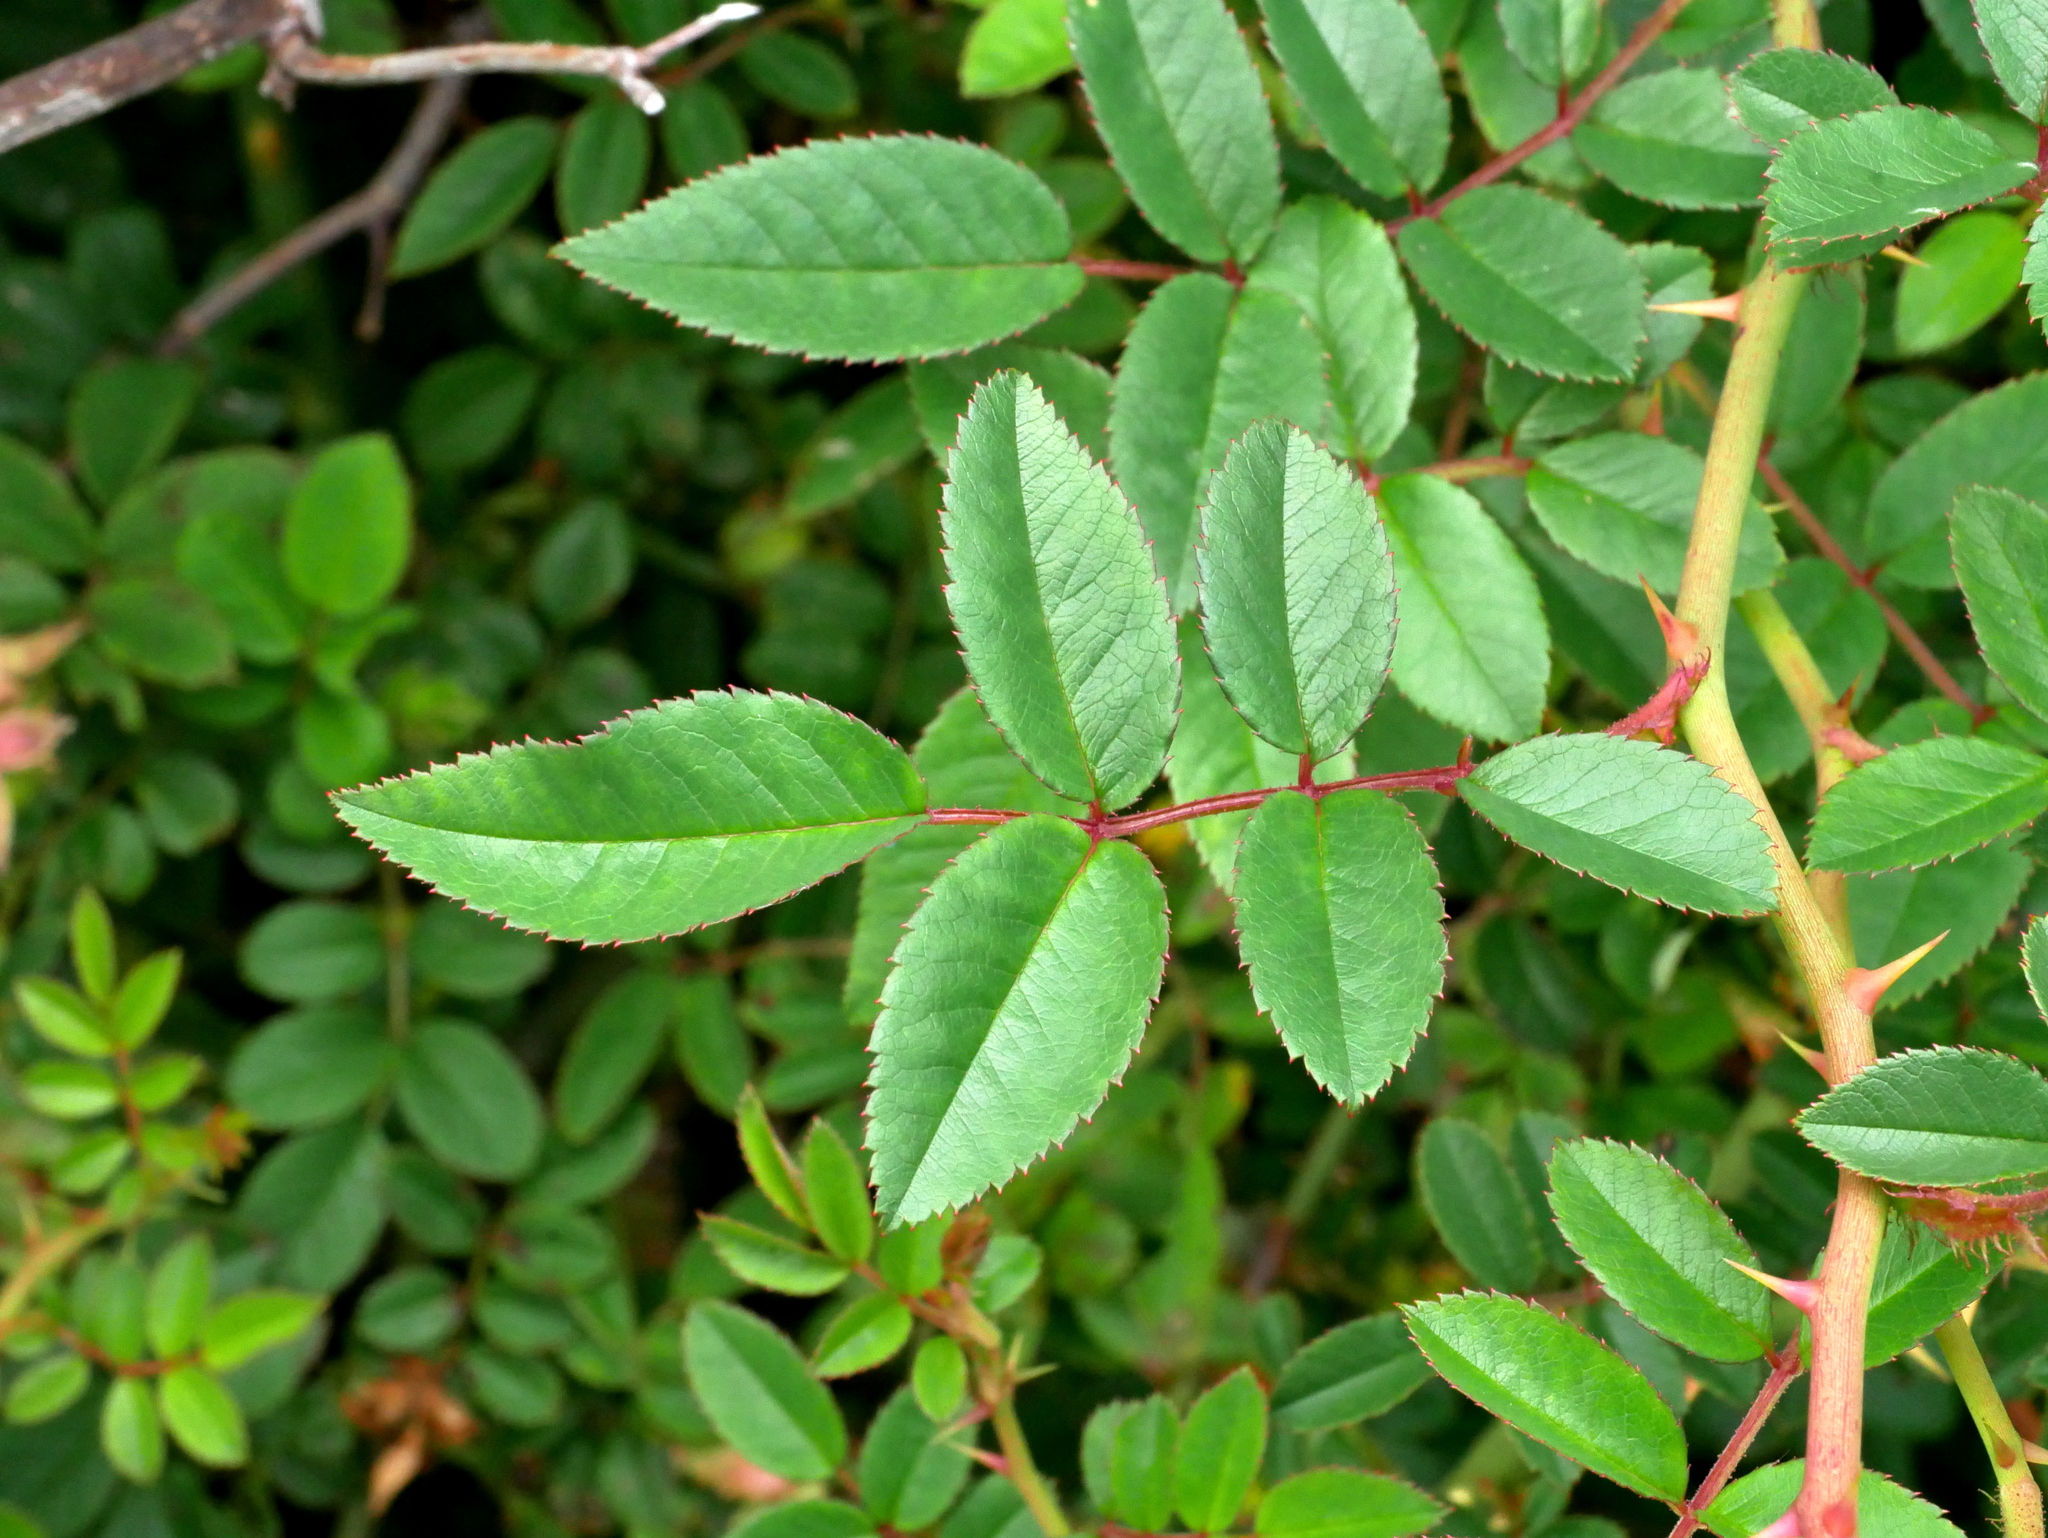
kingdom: Plantae
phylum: Tracheophyta
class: Magnoliopsida
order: Rosales
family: Rosaceae
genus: Rosa
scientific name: Rosa transmorrisonensis
